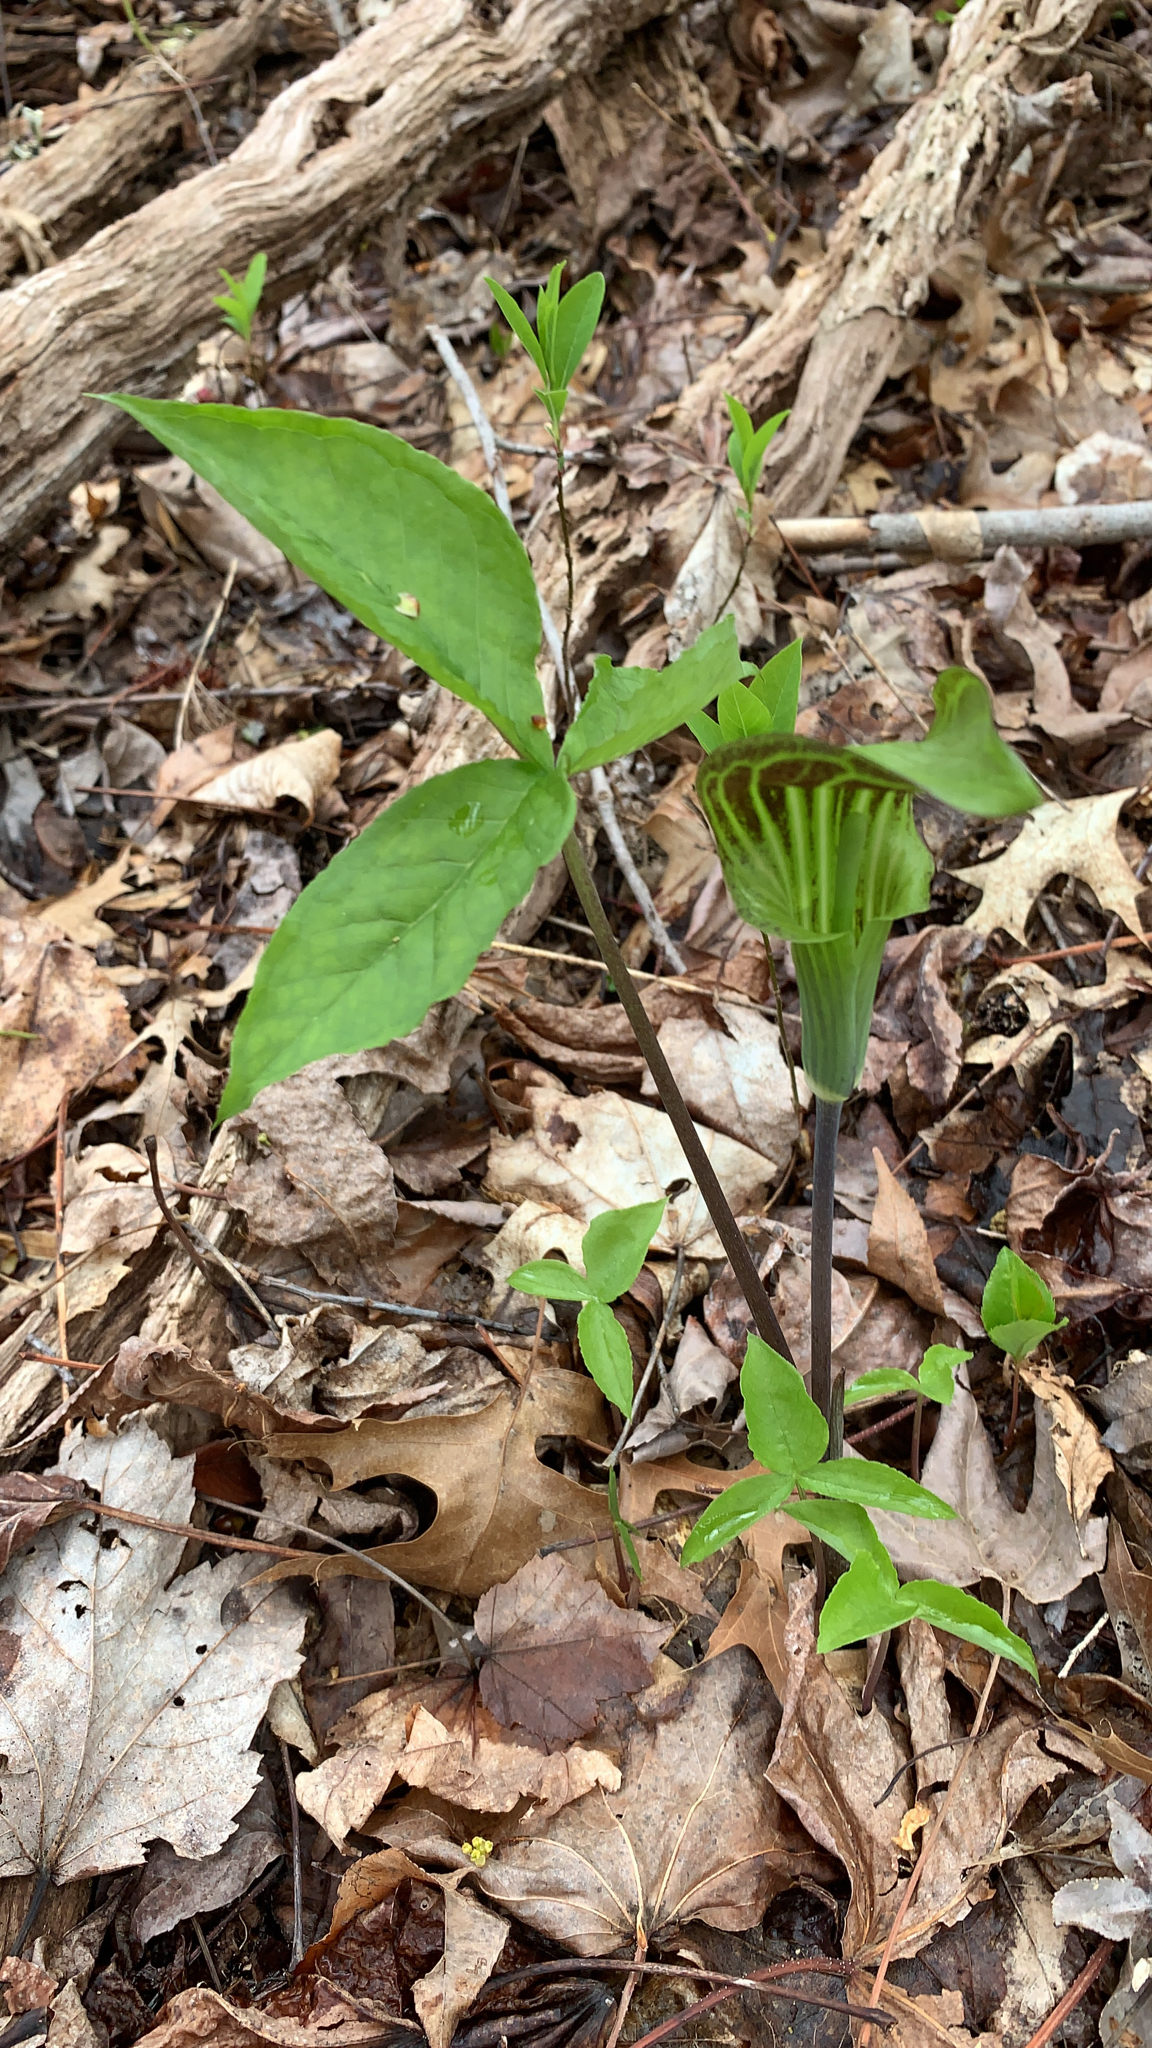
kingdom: Plantae
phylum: Tracheophyta
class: Liliopsida
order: Alismatales
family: Araceae
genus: Arisaema
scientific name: Arisaema triphyllum
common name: Jack-in-the-pulpit
